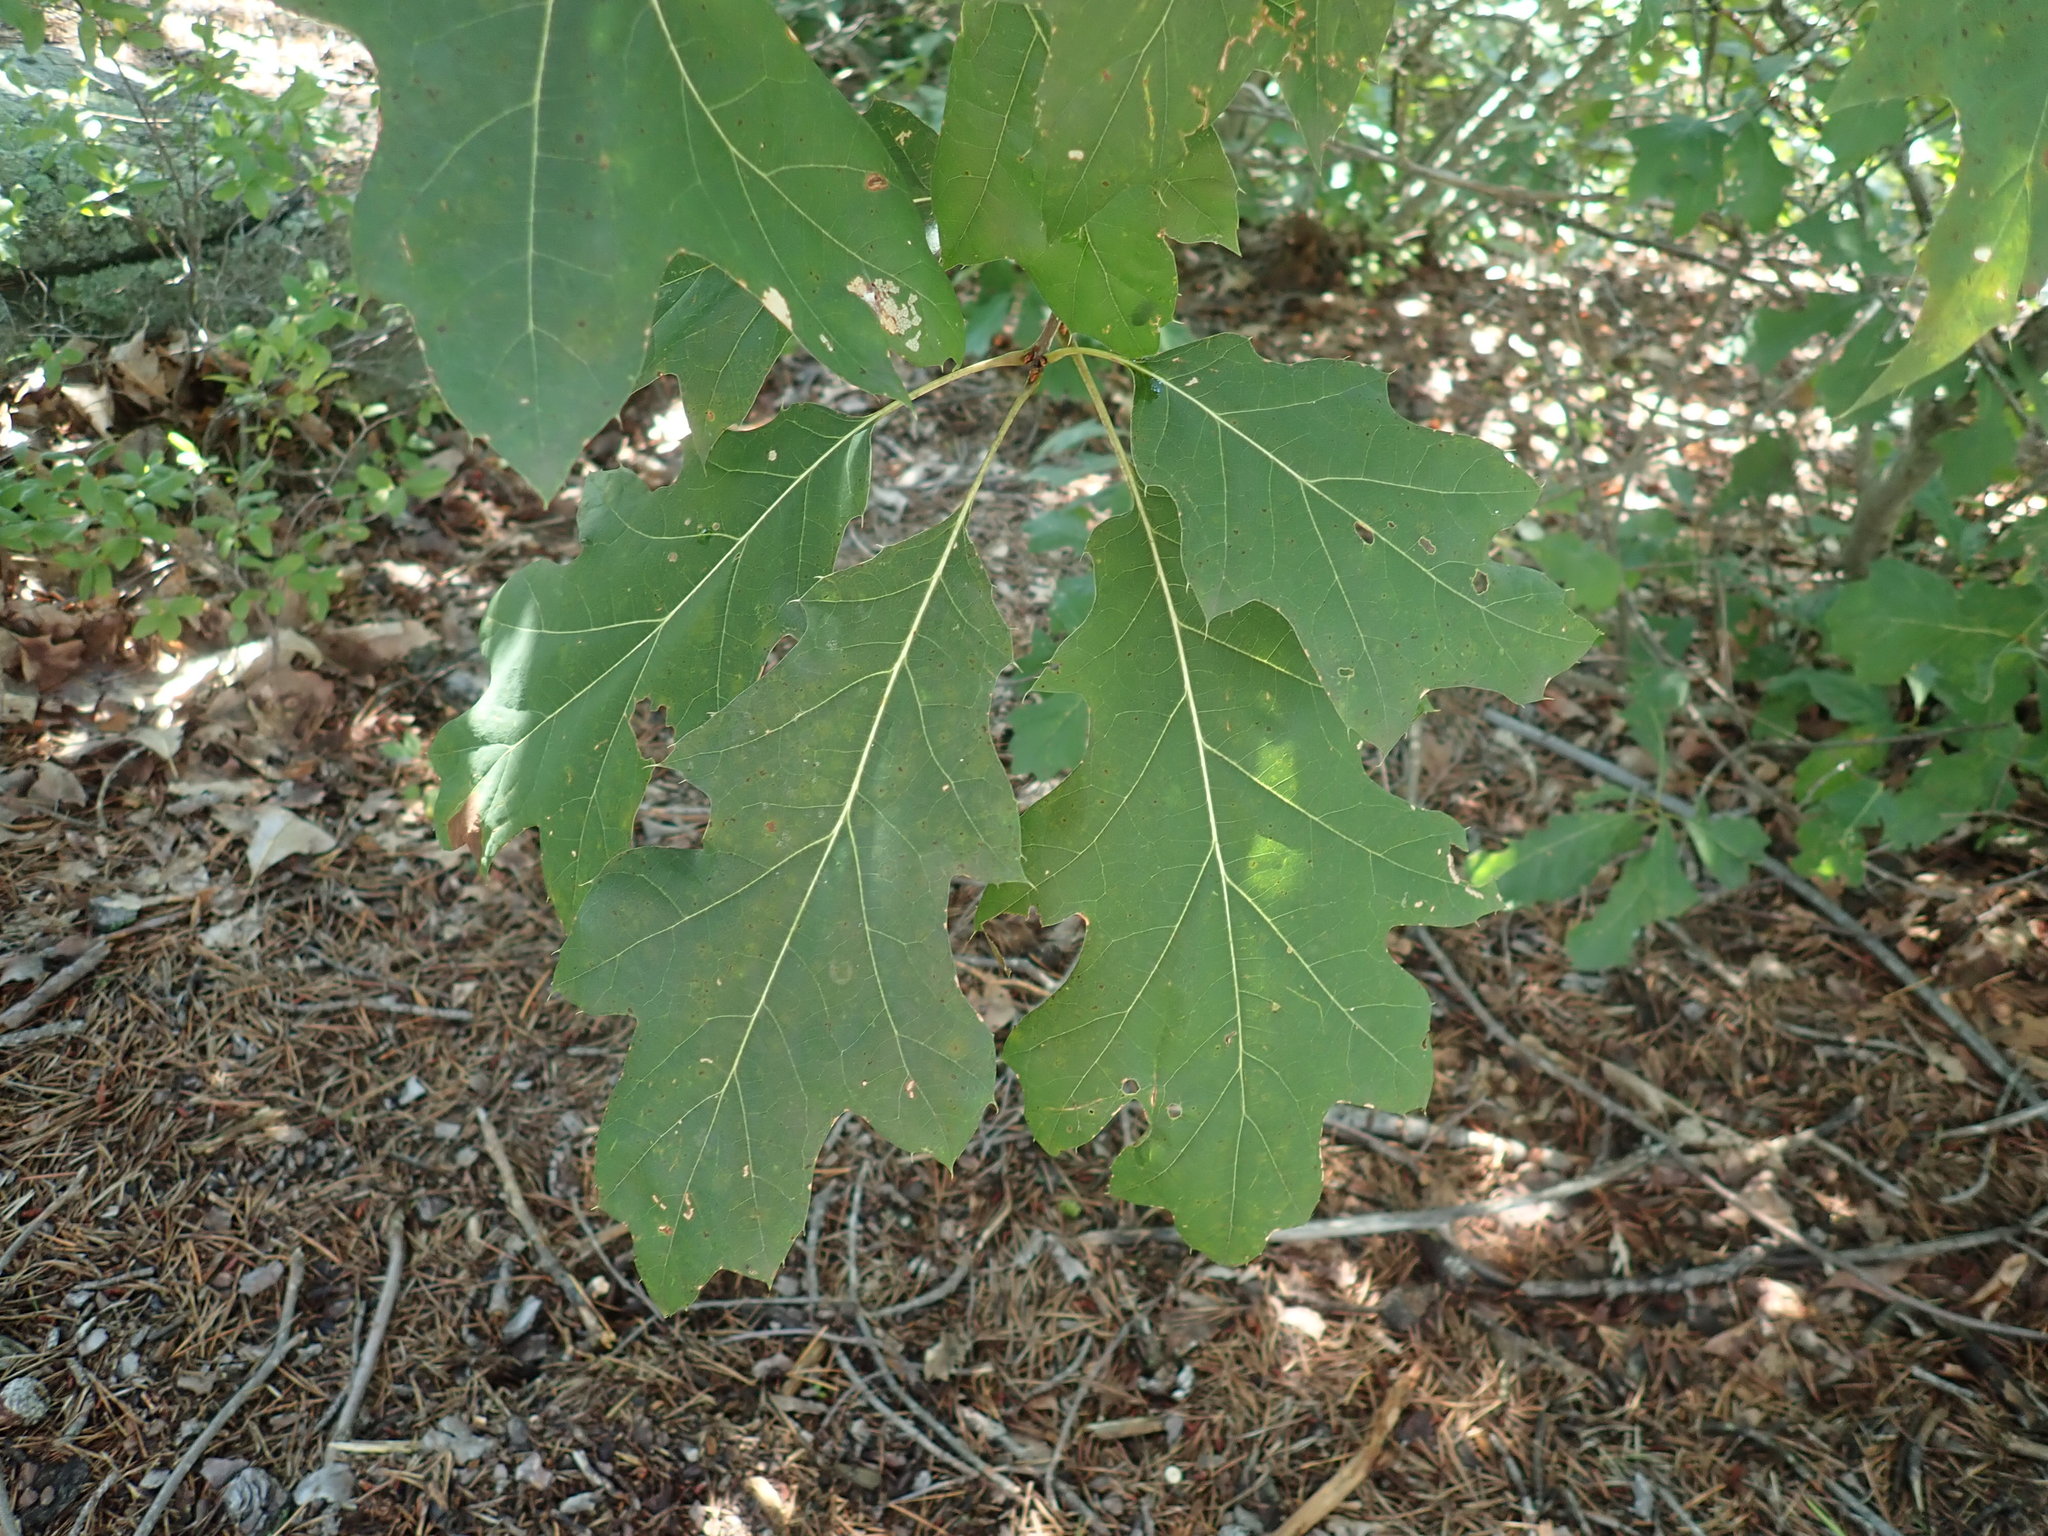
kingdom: Plantae
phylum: Tracheophyta
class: Magnoliopsida
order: Fagales
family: Fagaceae
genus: Quercus
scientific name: Quercus rubra
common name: Red oak
